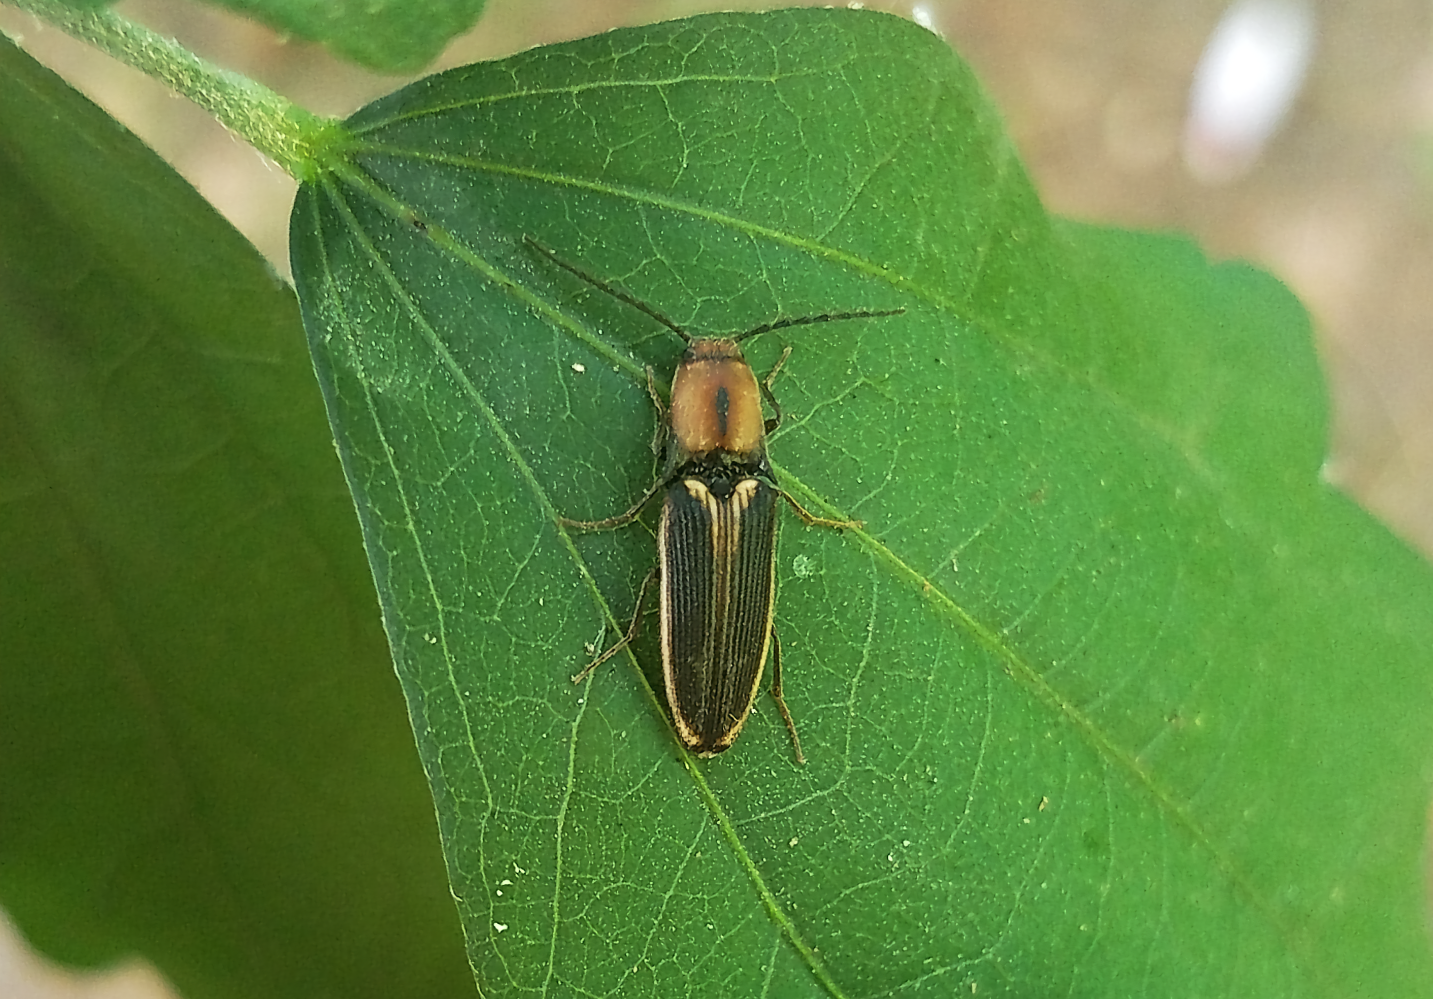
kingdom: Animalia
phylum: Arthropoda
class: Insecta
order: Coleoptera
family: Elateridae
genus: Megapenthes
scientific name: Megapenthes
